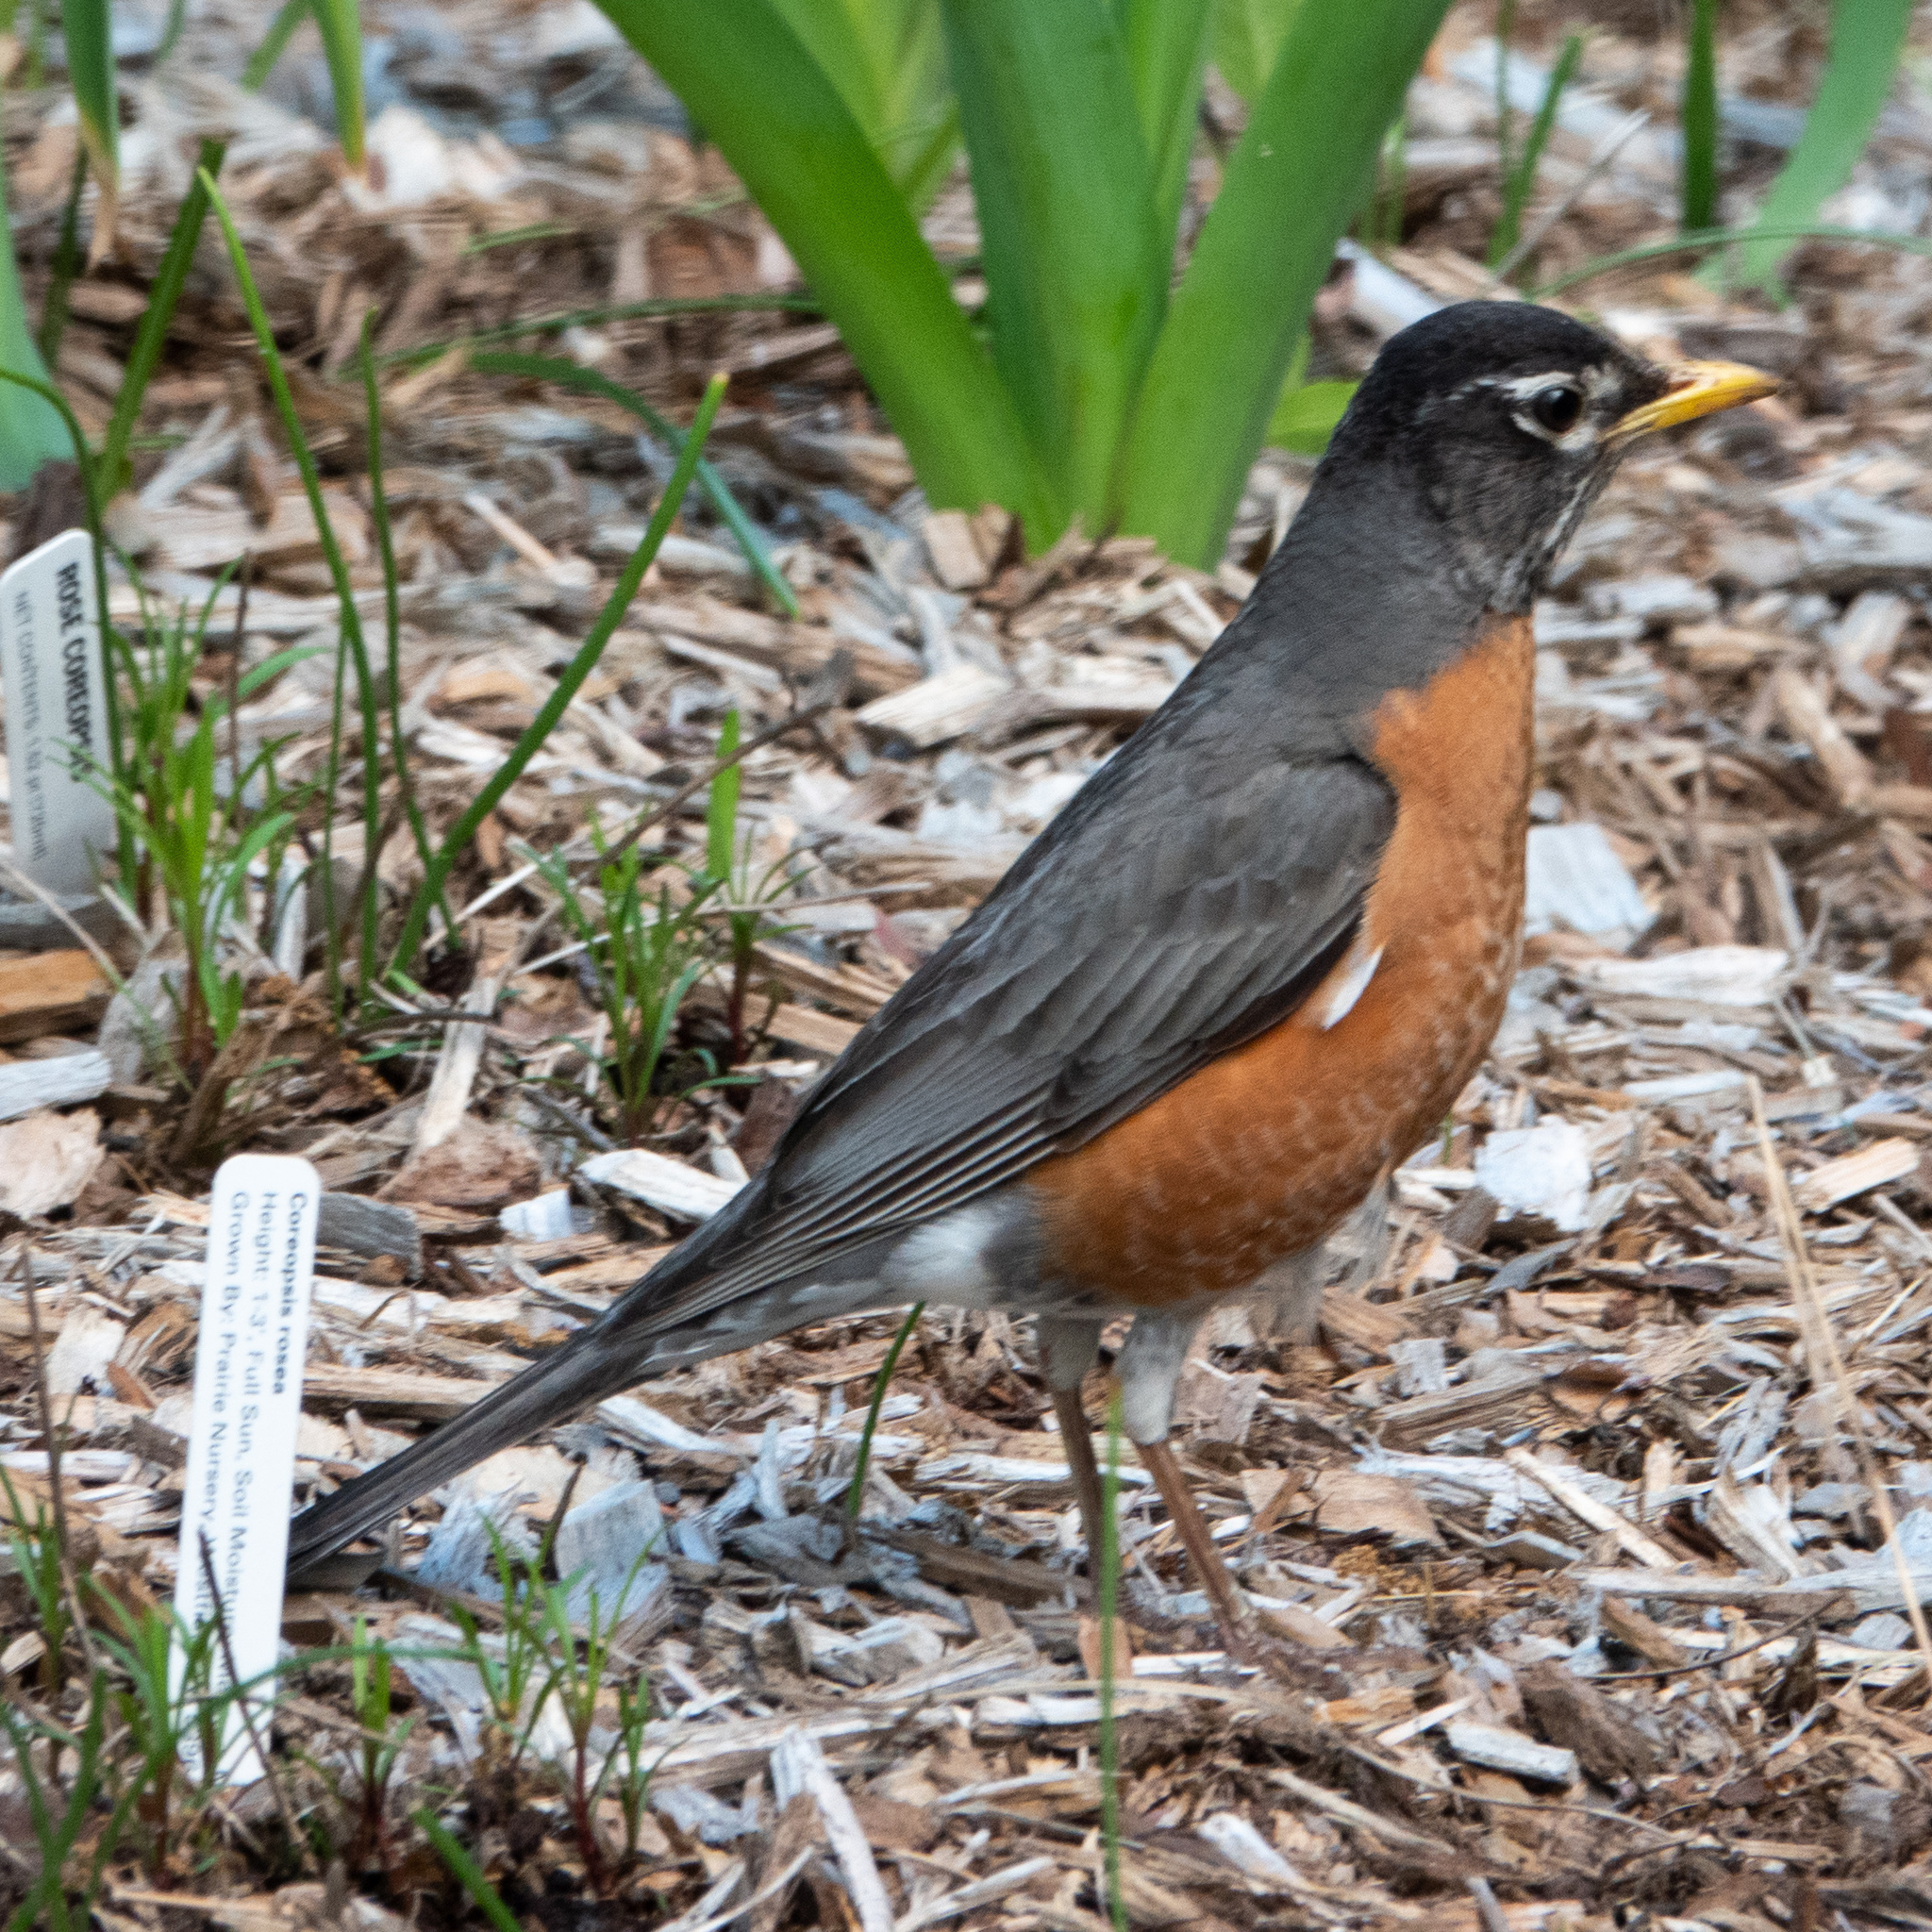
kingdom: Animalia
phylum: Chordata
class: Aves
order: Passeriformes
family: Turdidae
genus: Turdus
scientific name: Turdus migratorius
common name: American robin
